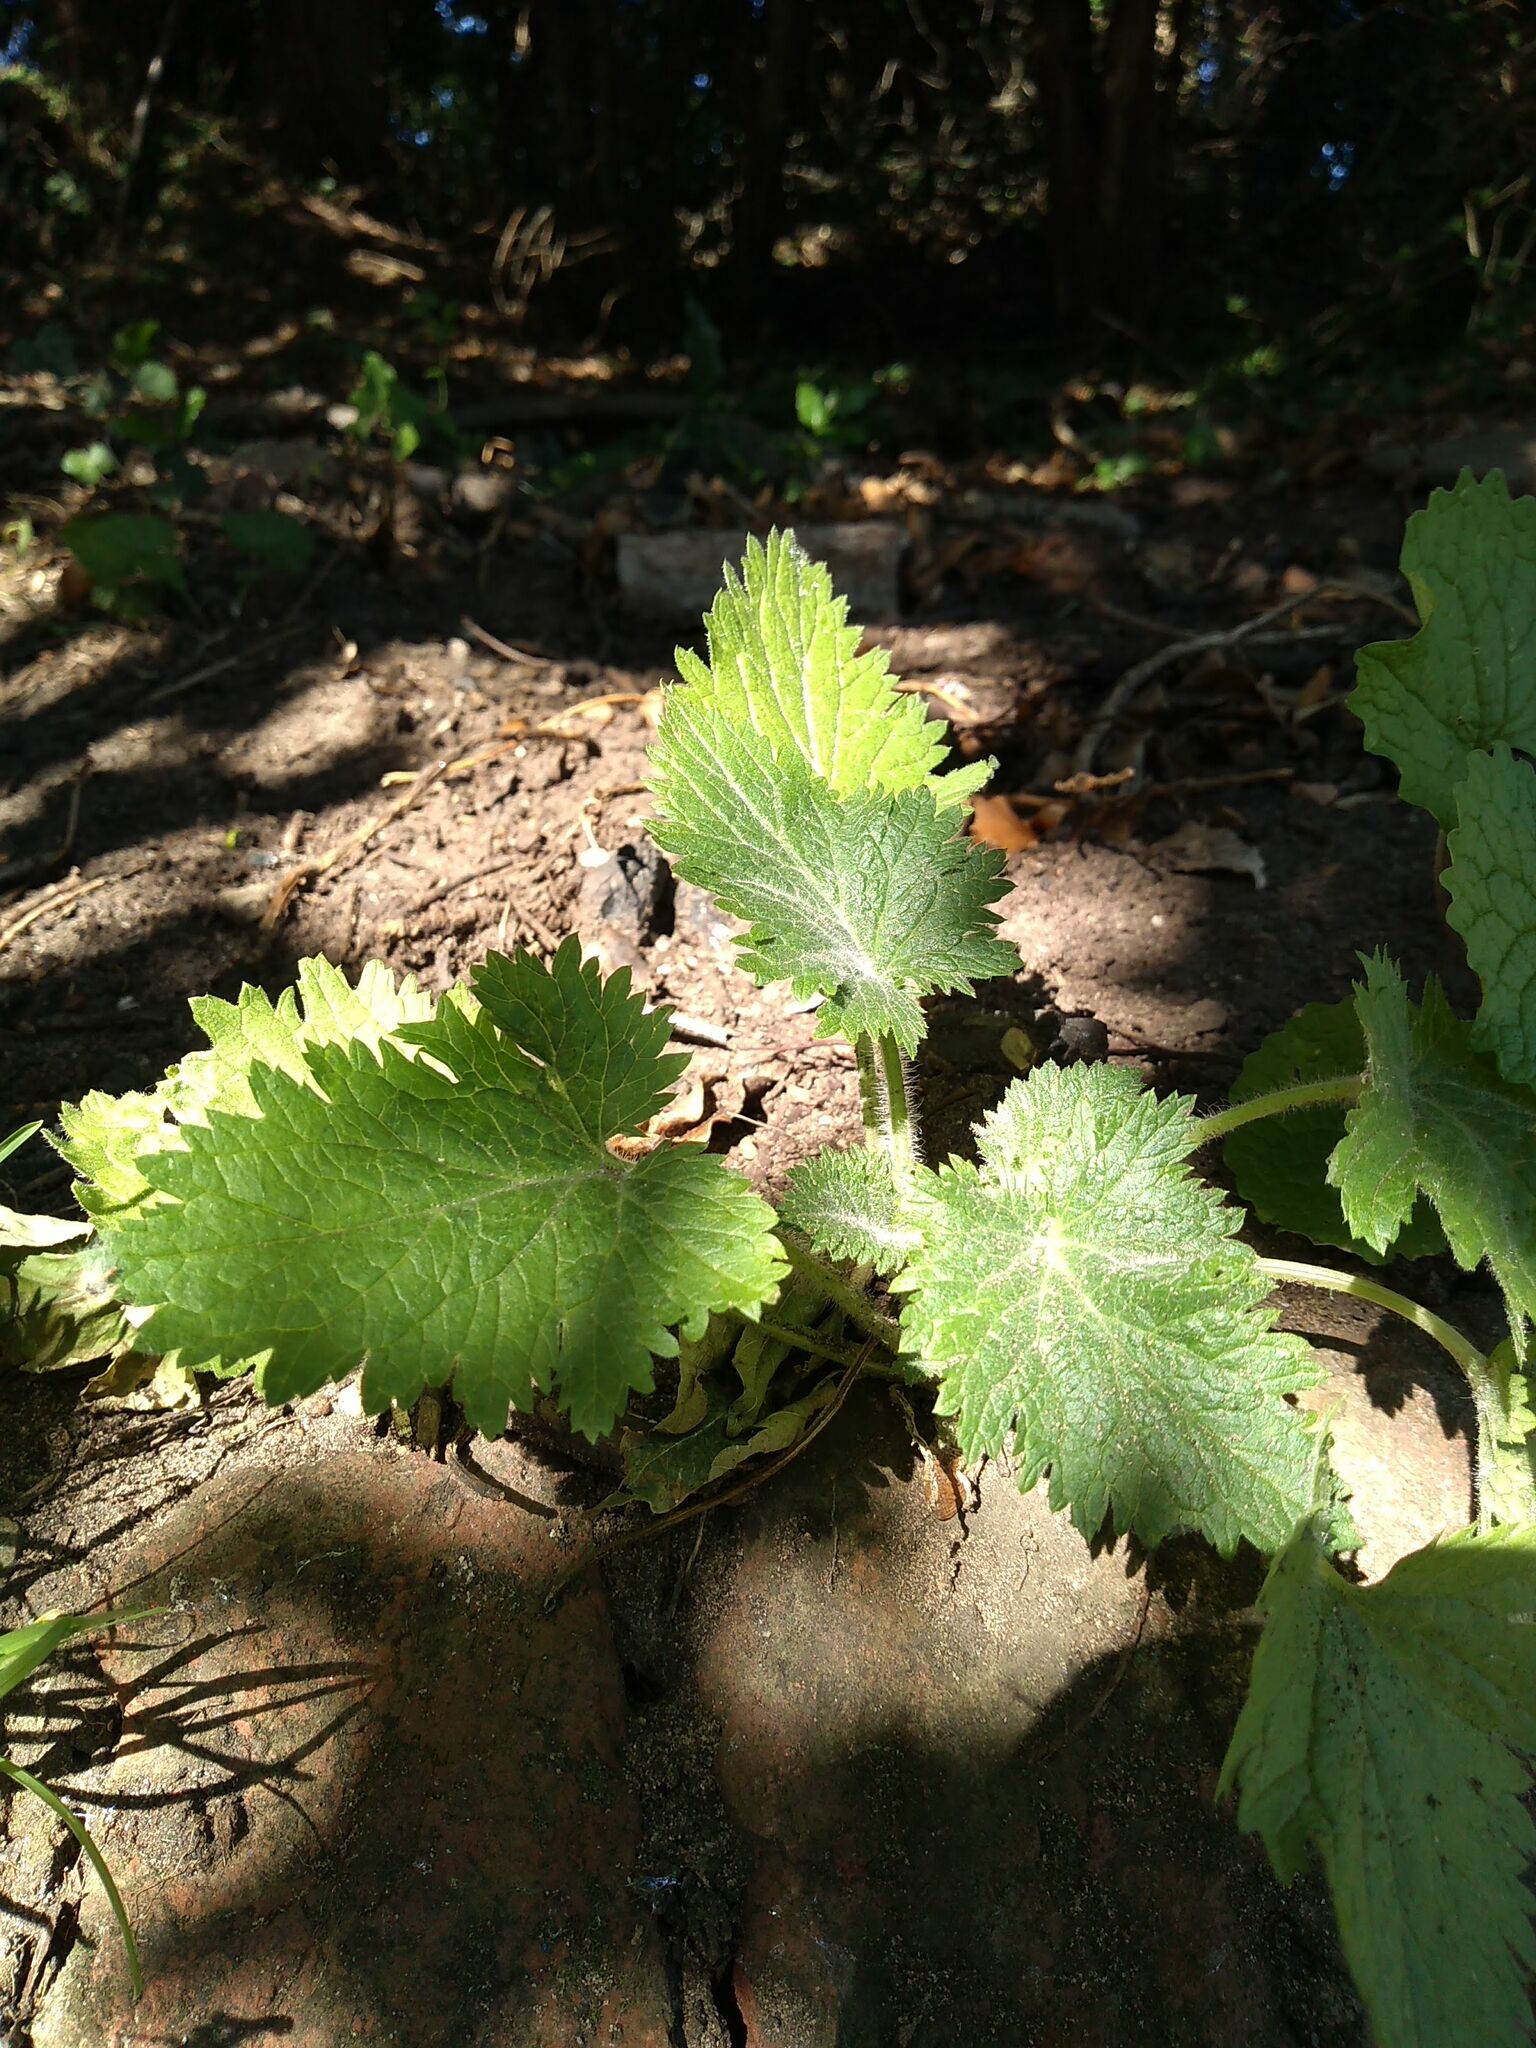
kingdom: Plantae
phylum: Tracheophyta
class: Magnoliopsida
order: Lamiales
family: Scrophulariaceae
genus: Scrophularia
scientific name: Scrophularia vernalis
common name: Yellow figwort
